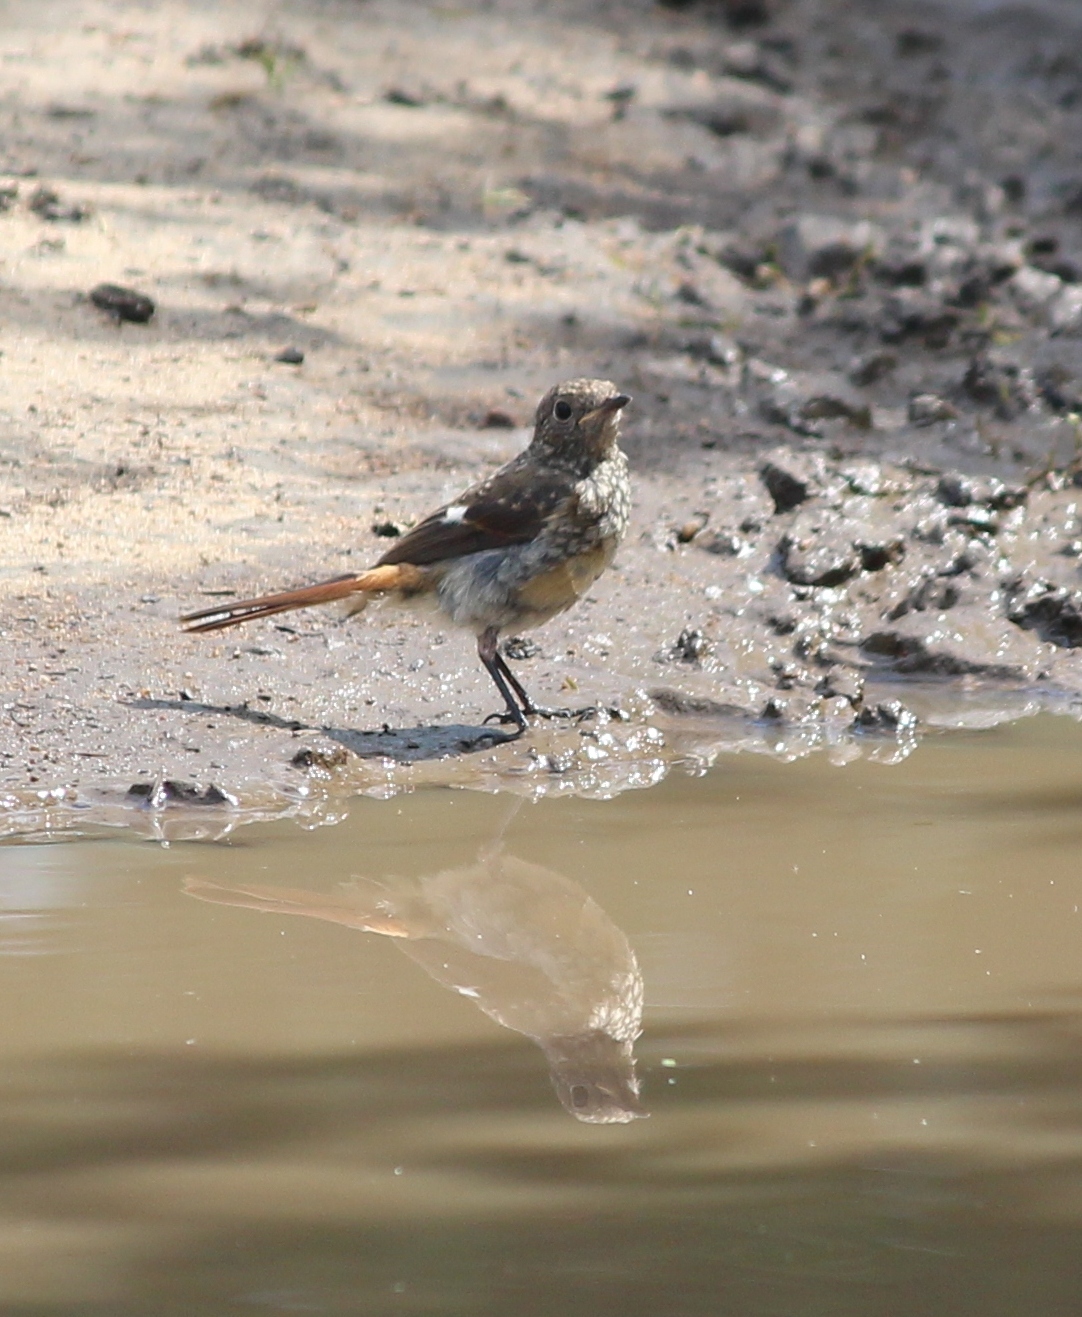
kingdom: Animalia
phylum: Chordata
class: Aves
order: Passeriformes
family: Muscicapidae
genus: Phoenicurus
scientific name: Phoenicurus auroreus
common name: Daurian redstart
